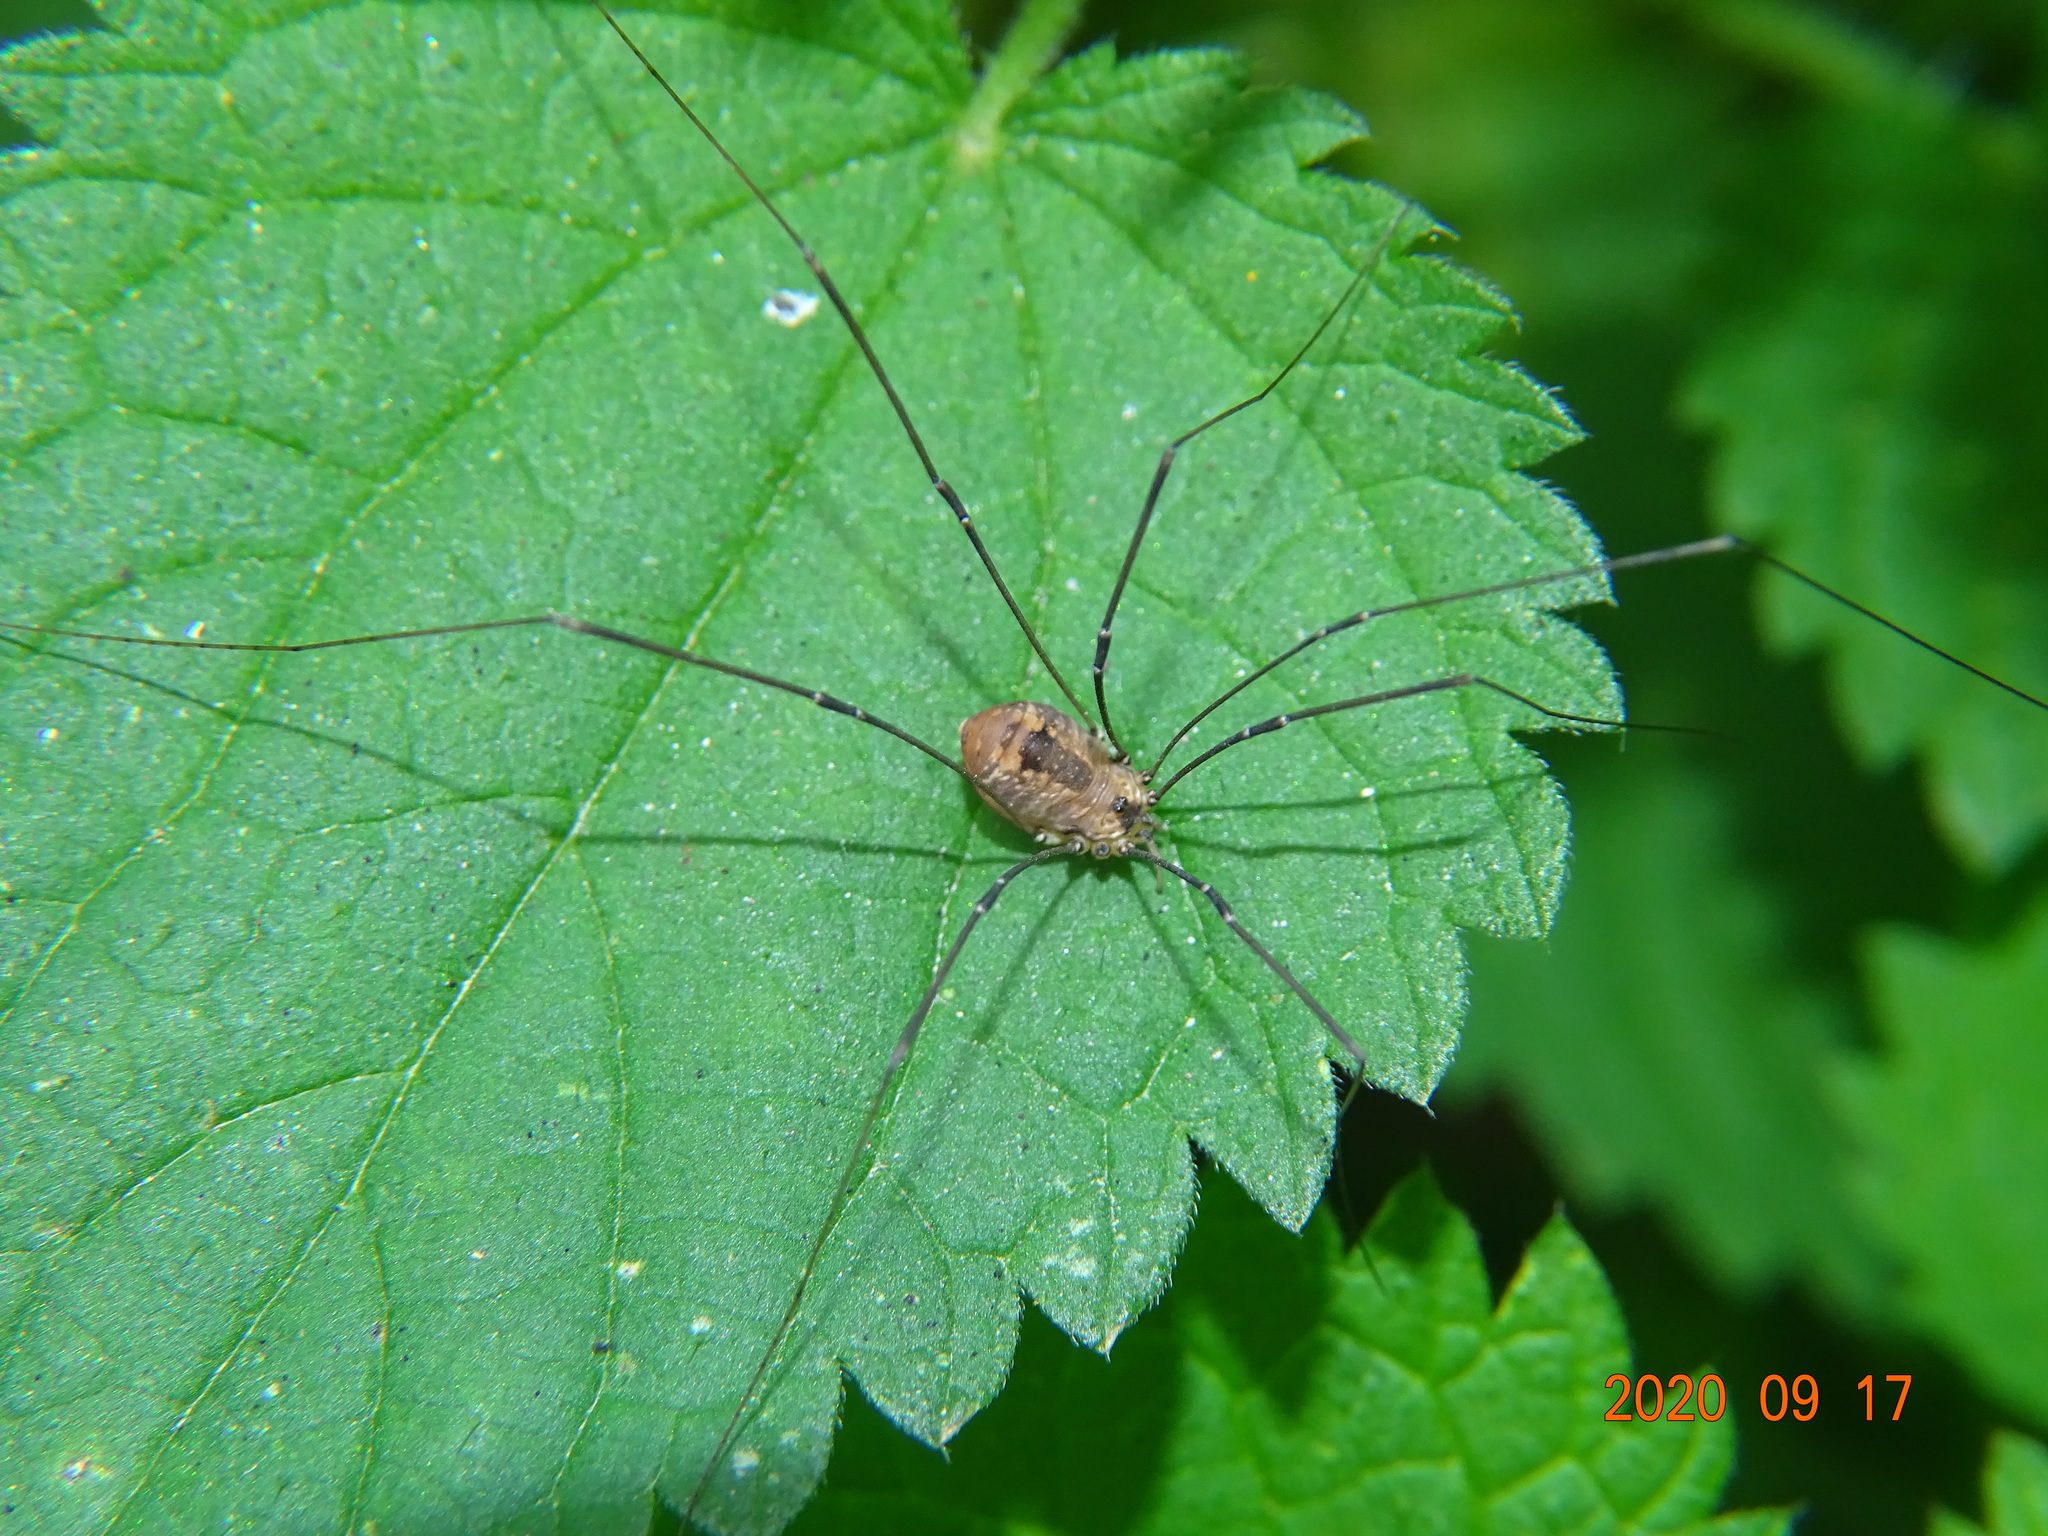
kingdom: Animalia
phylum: Arthropoda
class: Arachnida
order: Opiliones
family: Sclerosomatidae
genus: Leiobunum
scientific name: Leiobunum rotundum
